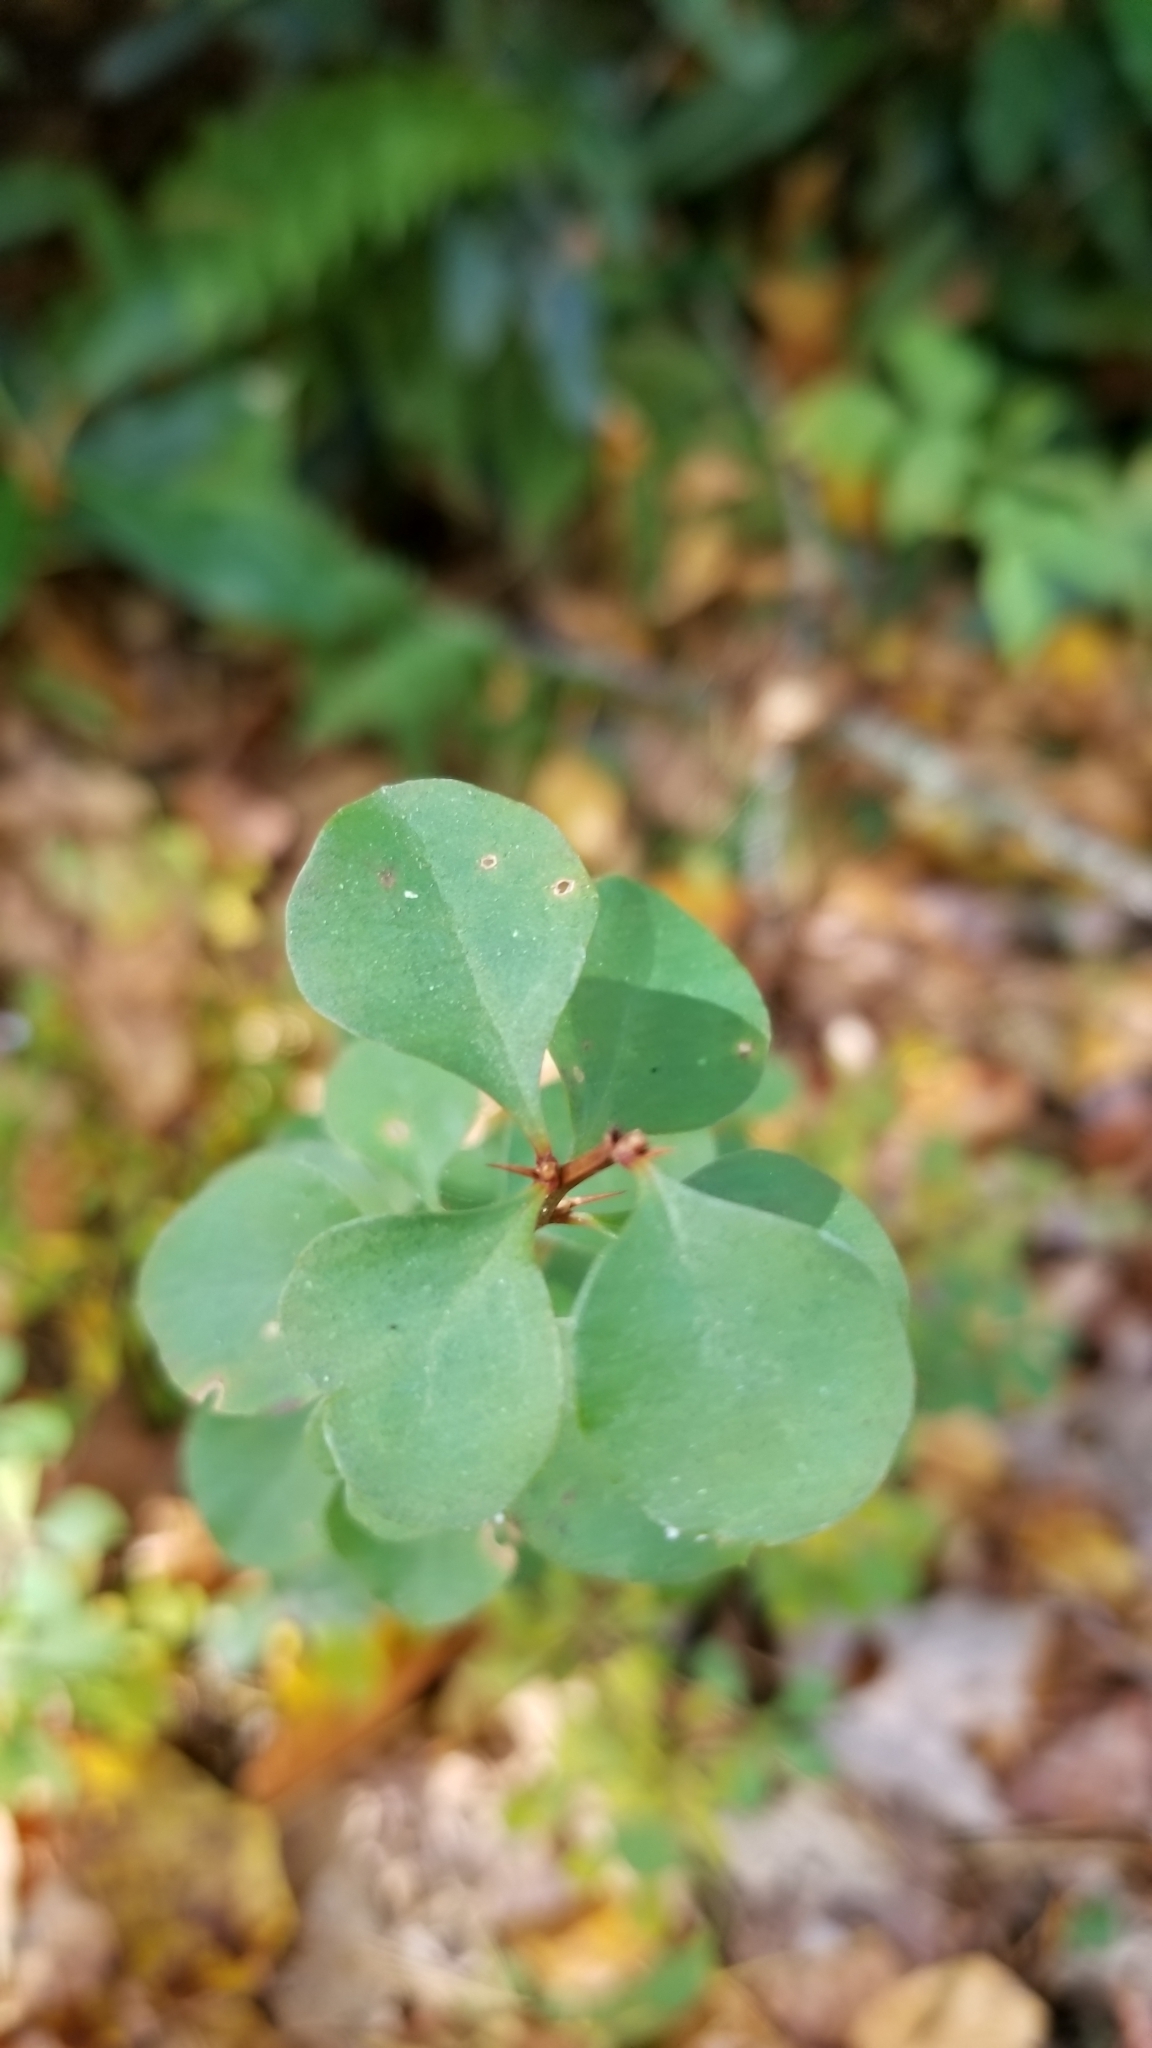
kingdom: Plantae
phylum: Tracheophyta
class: Magnoliopsida
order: Ranunculales
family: Berberidaceae
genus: Berberis
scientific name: Berberis thunbergii
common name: Japanese barberry
